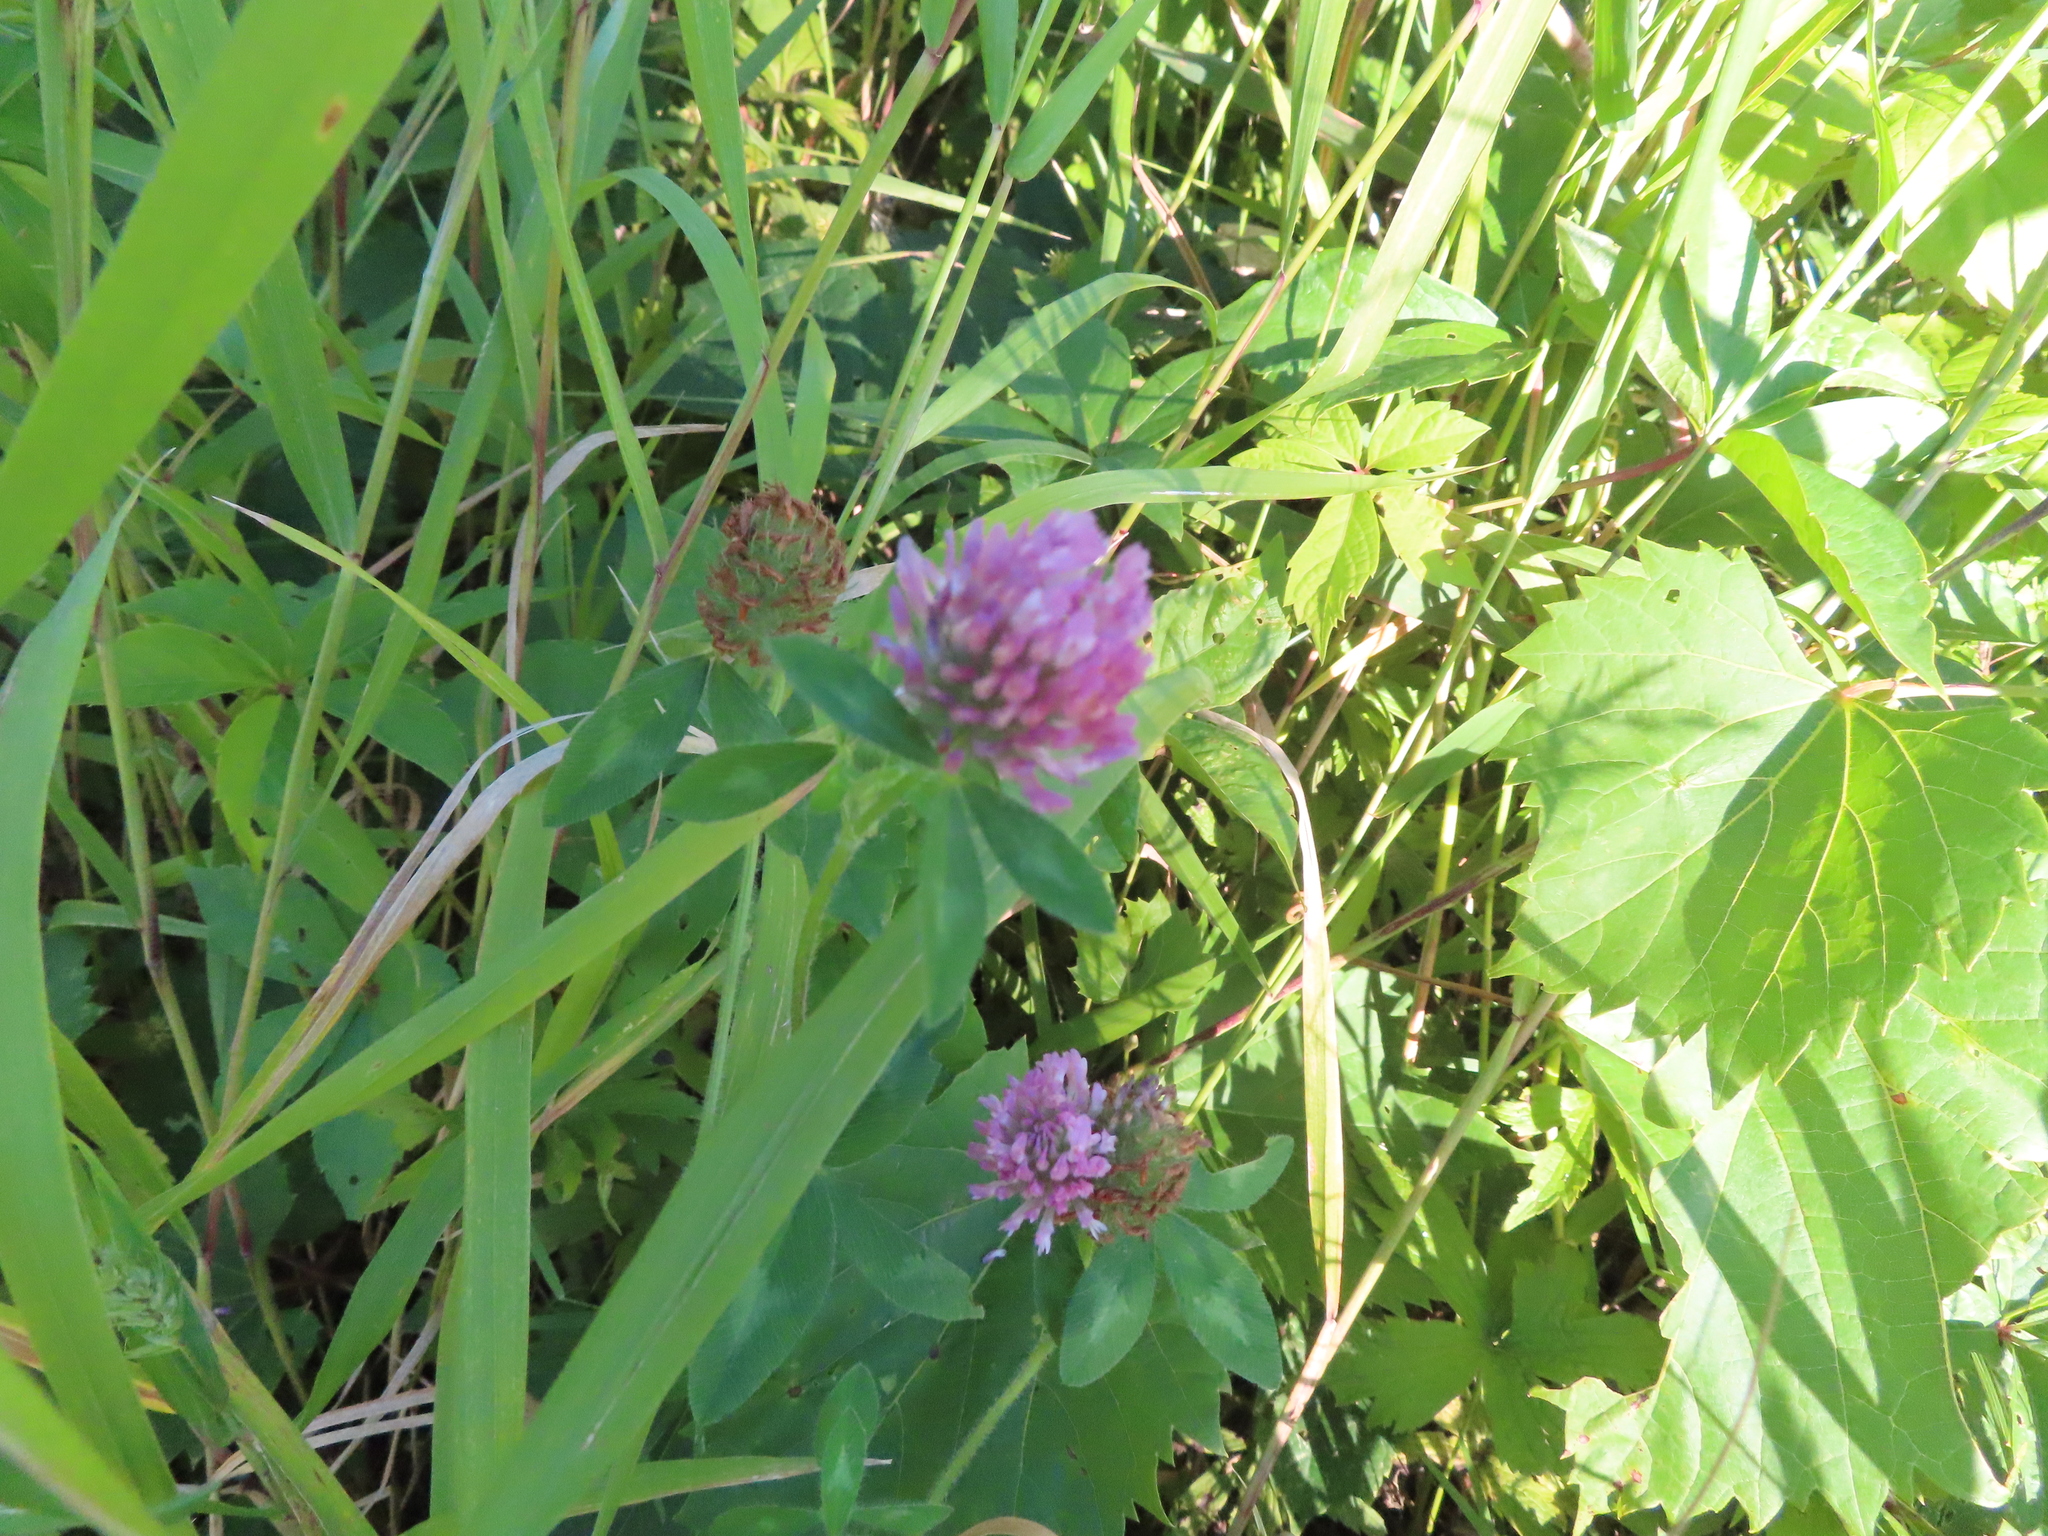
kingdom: Plantae
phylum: Tracheophyta
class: Magnoliopsida
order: Fabales
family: Fabaceae
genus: Trifolium
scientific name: Trifolium pratense
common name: Red clover
